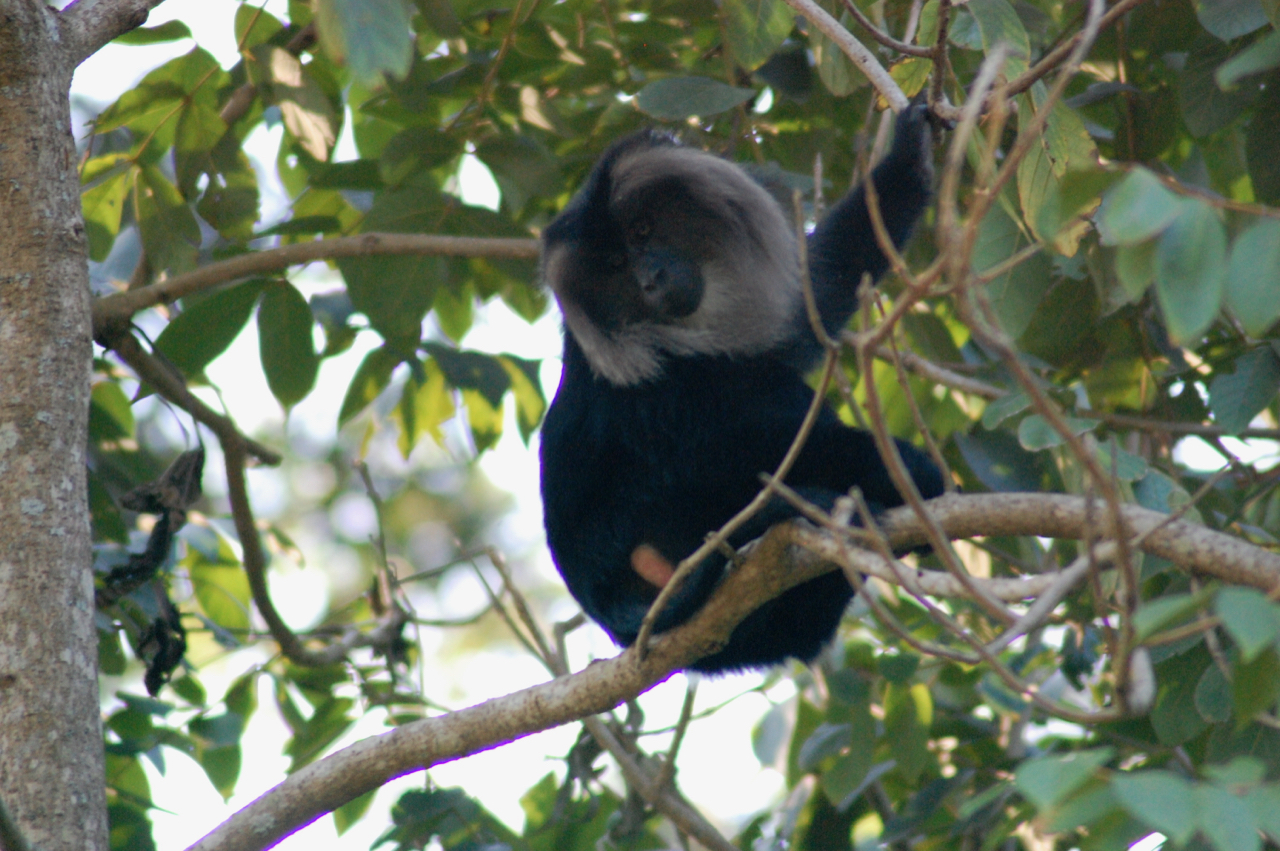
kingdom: Animalia
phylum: Chordata
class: Mammalia
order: Primates
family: Cercopithecidae
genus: Macaca
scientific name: Macaca silenus
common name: Lion-tailed macaque
